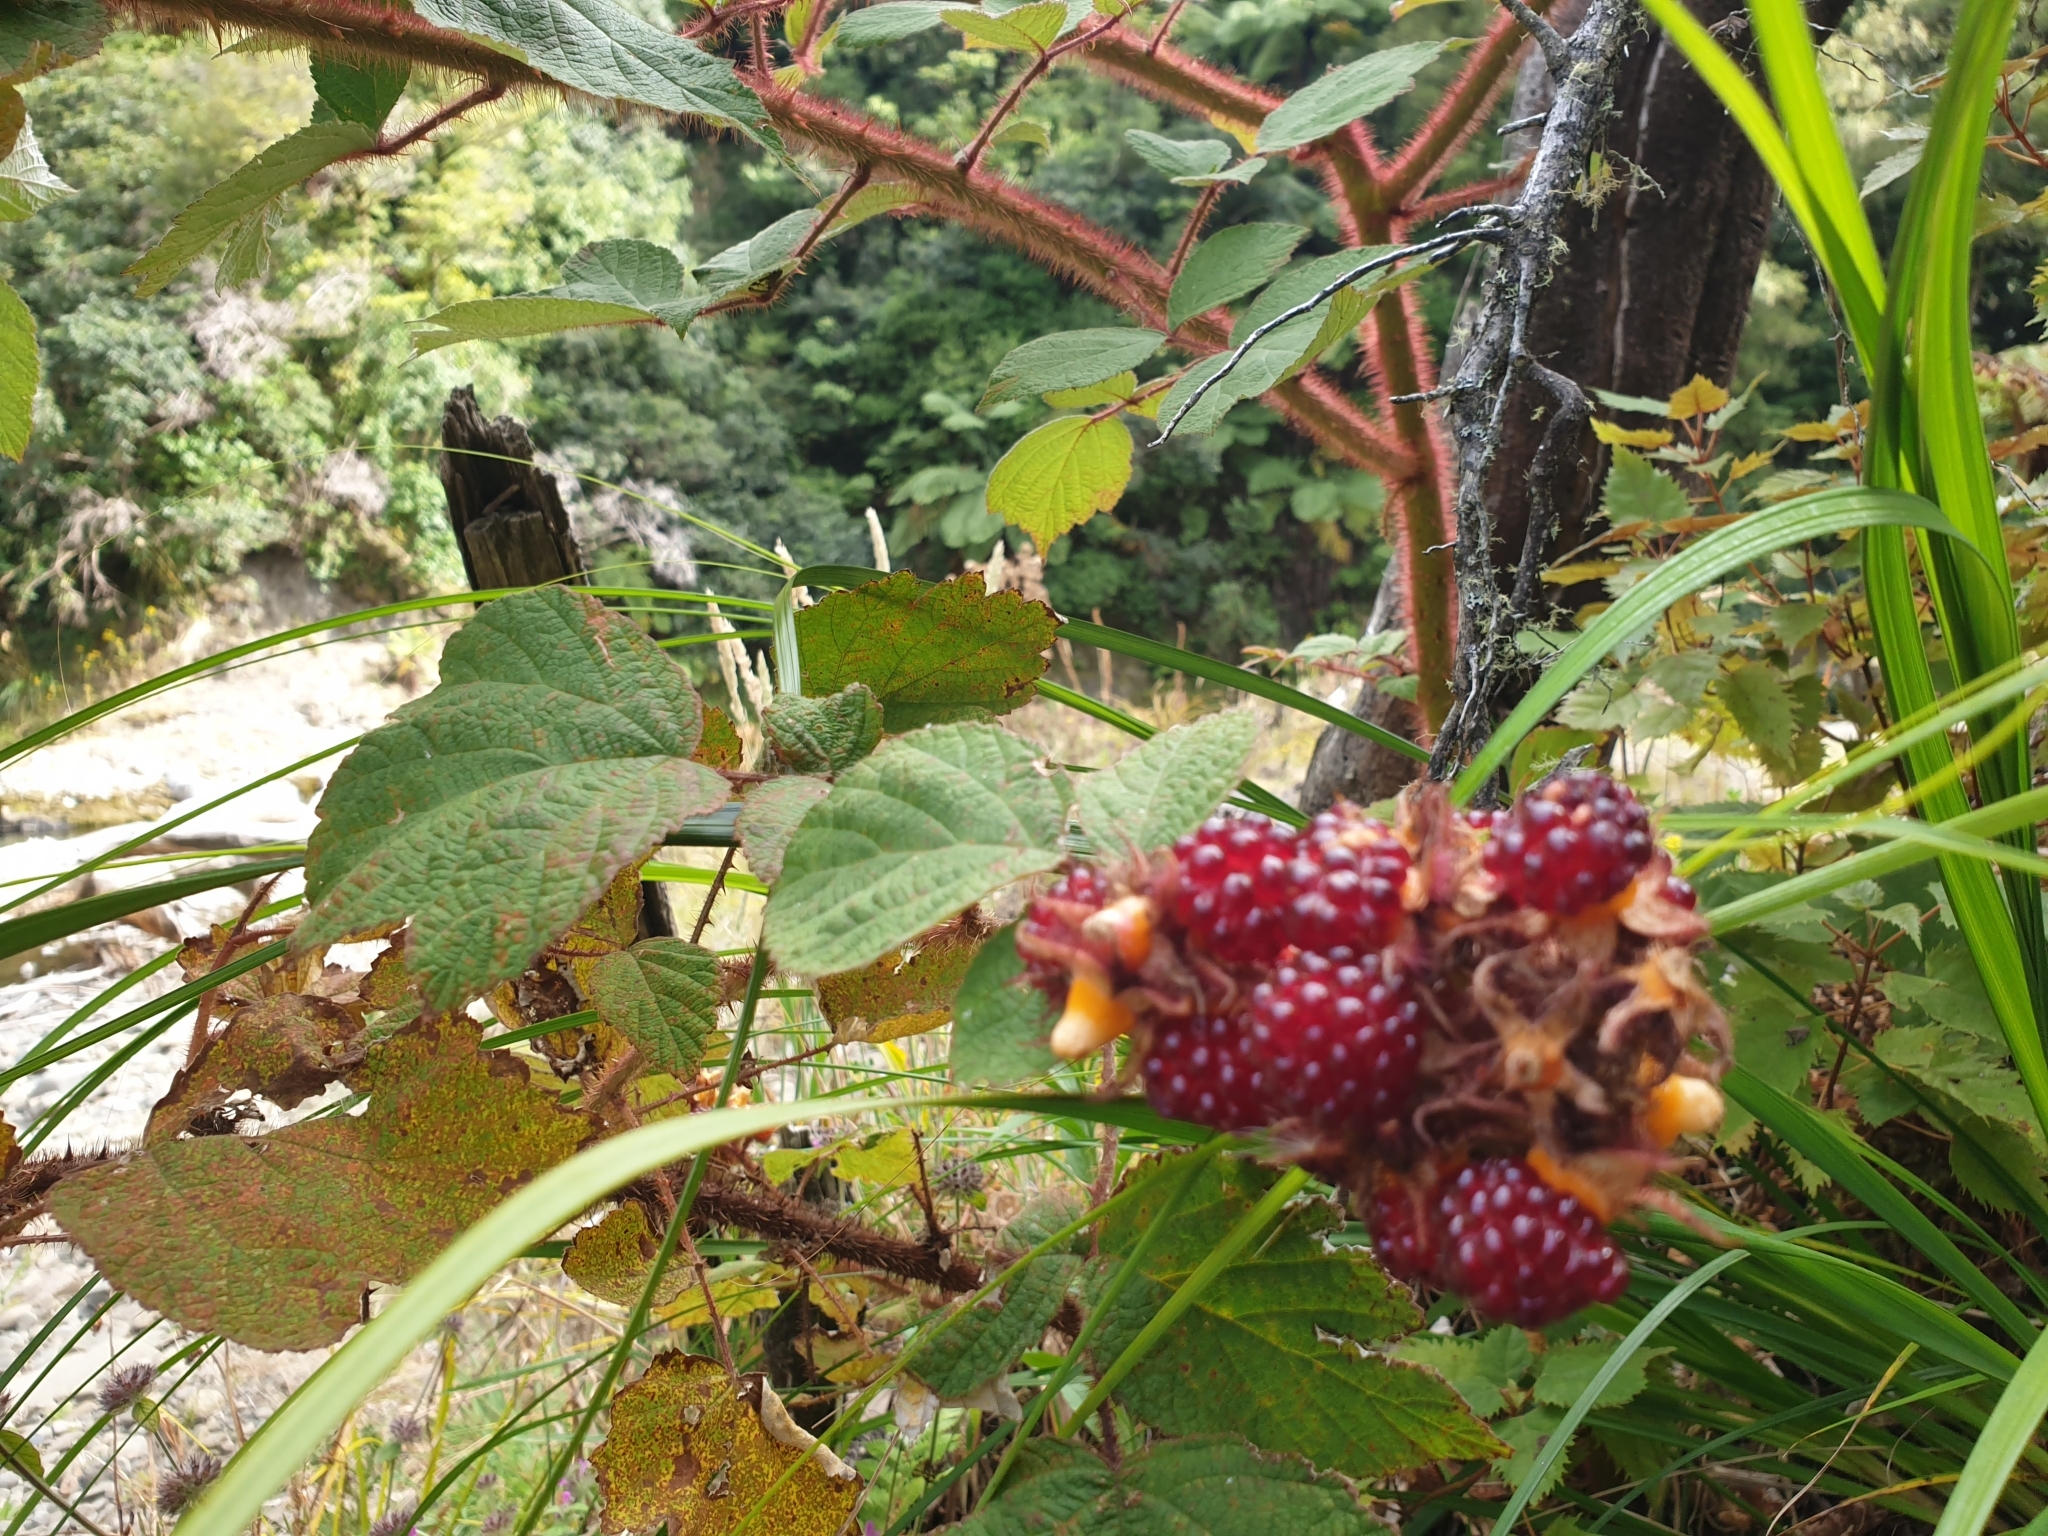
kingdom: Plantae
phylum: Tracheophyta
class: Magnoliopsida
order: Rosales
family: Rosaceae
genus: Rubus
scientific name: Rubus phoenicolasius
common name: Japanese wineberry
